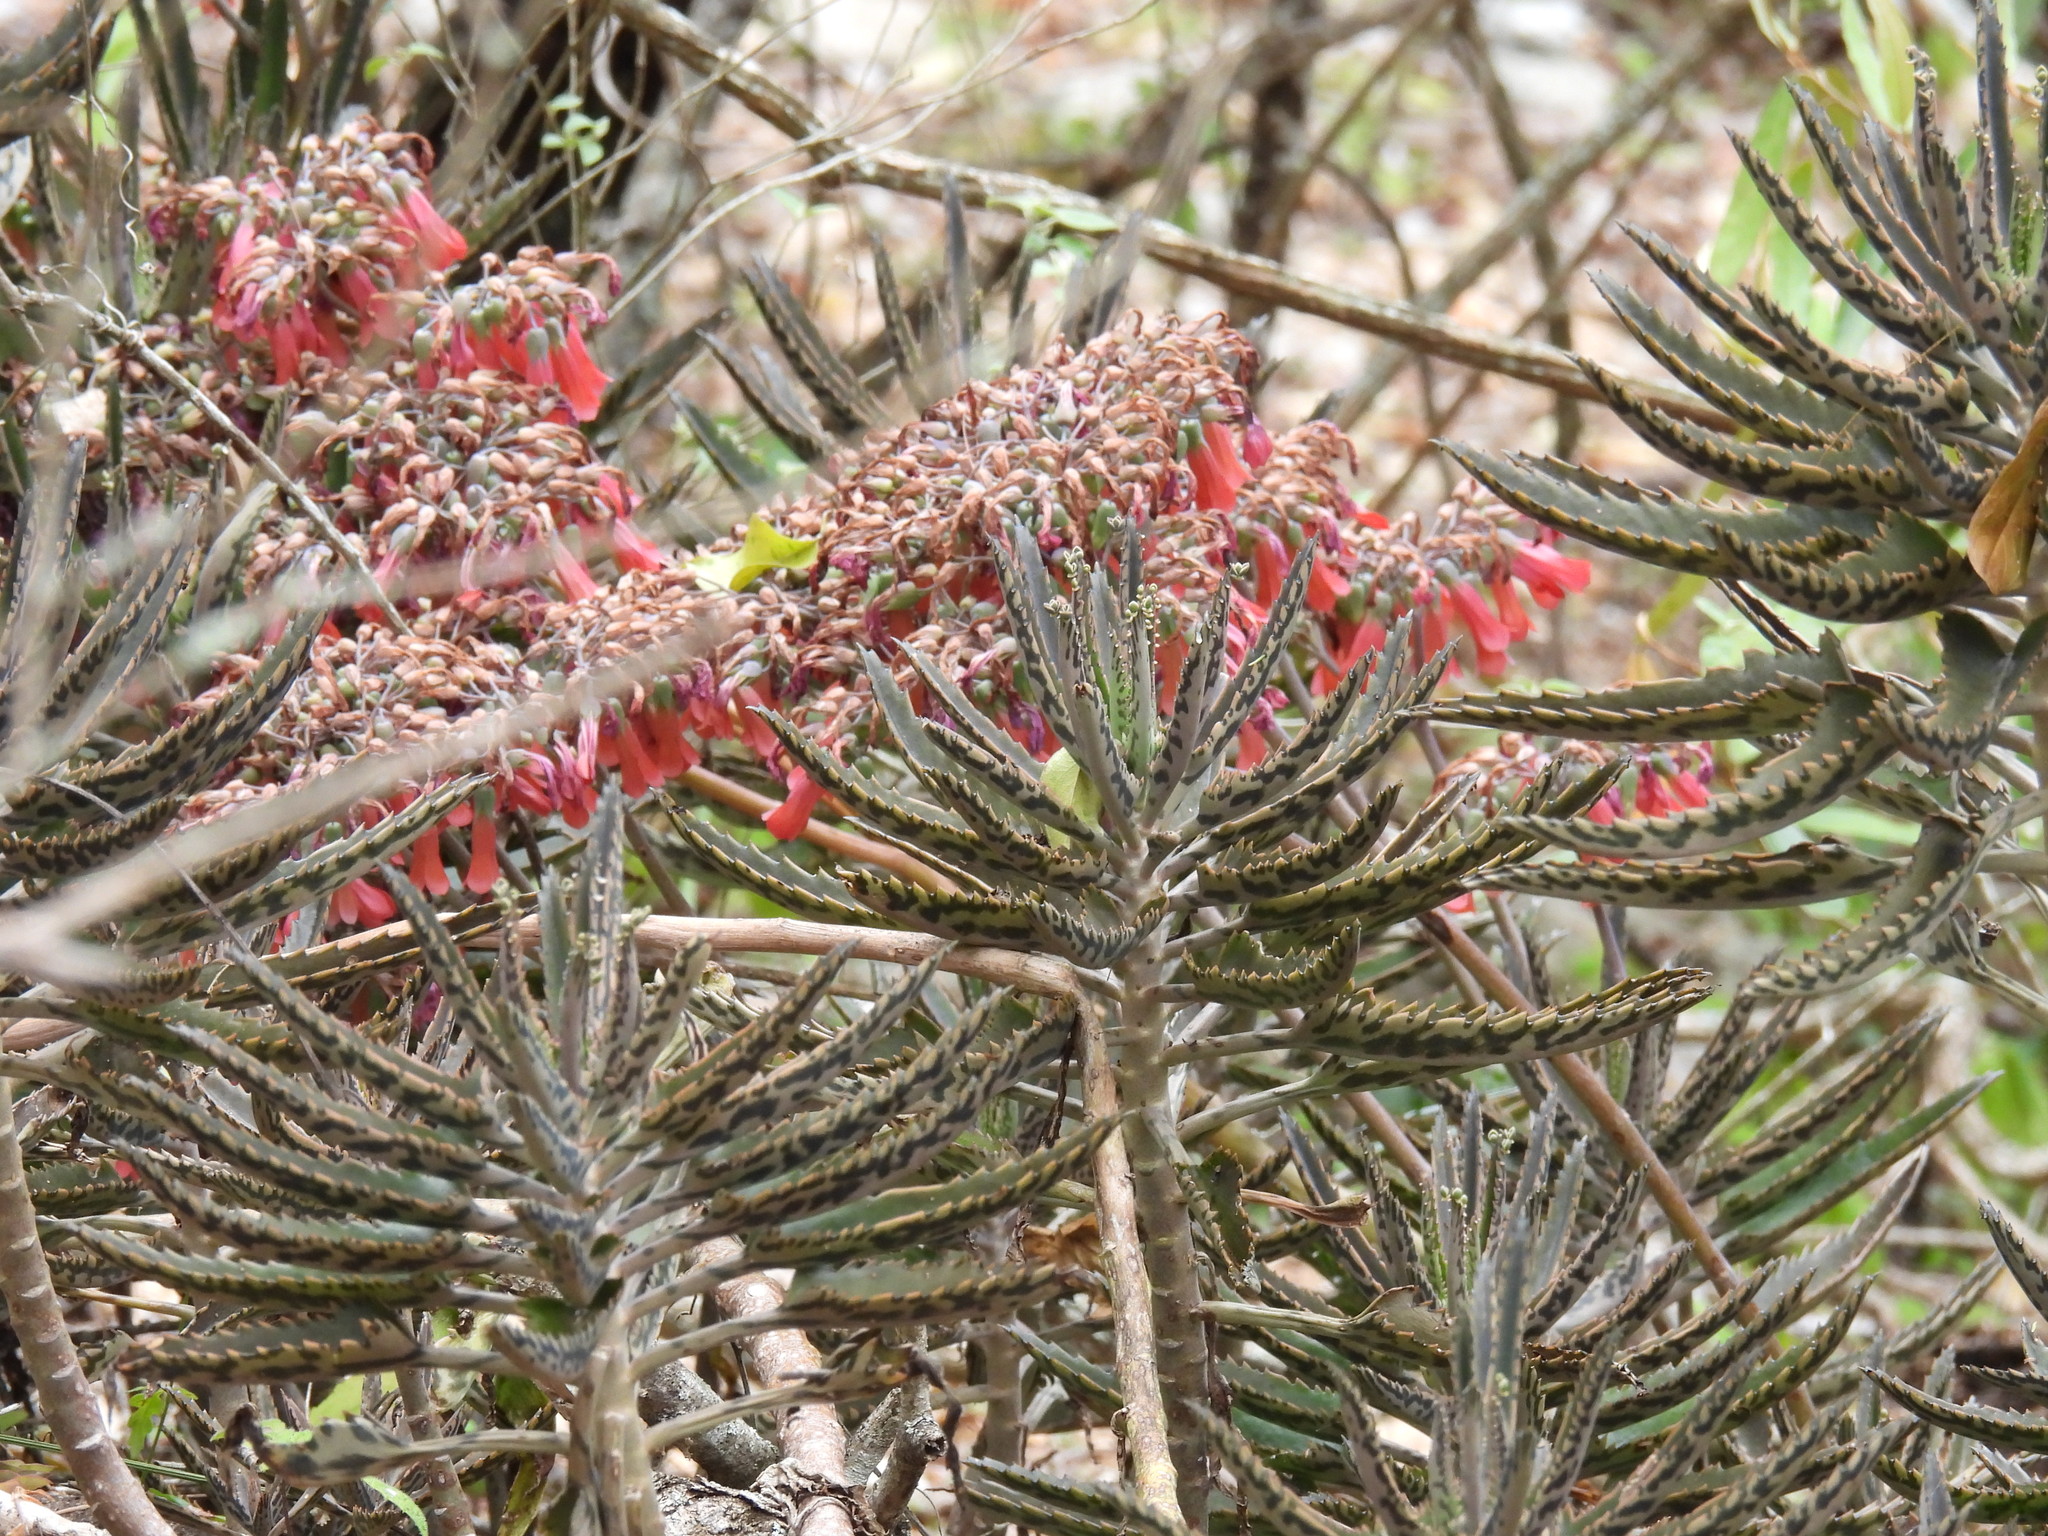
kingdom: Plantae
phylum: Tracheophyta
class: Magnoliopsida
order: Saxifragales
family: Crassulaceae
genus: Kalanchoe
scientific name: Kalanchoe houghtonii
